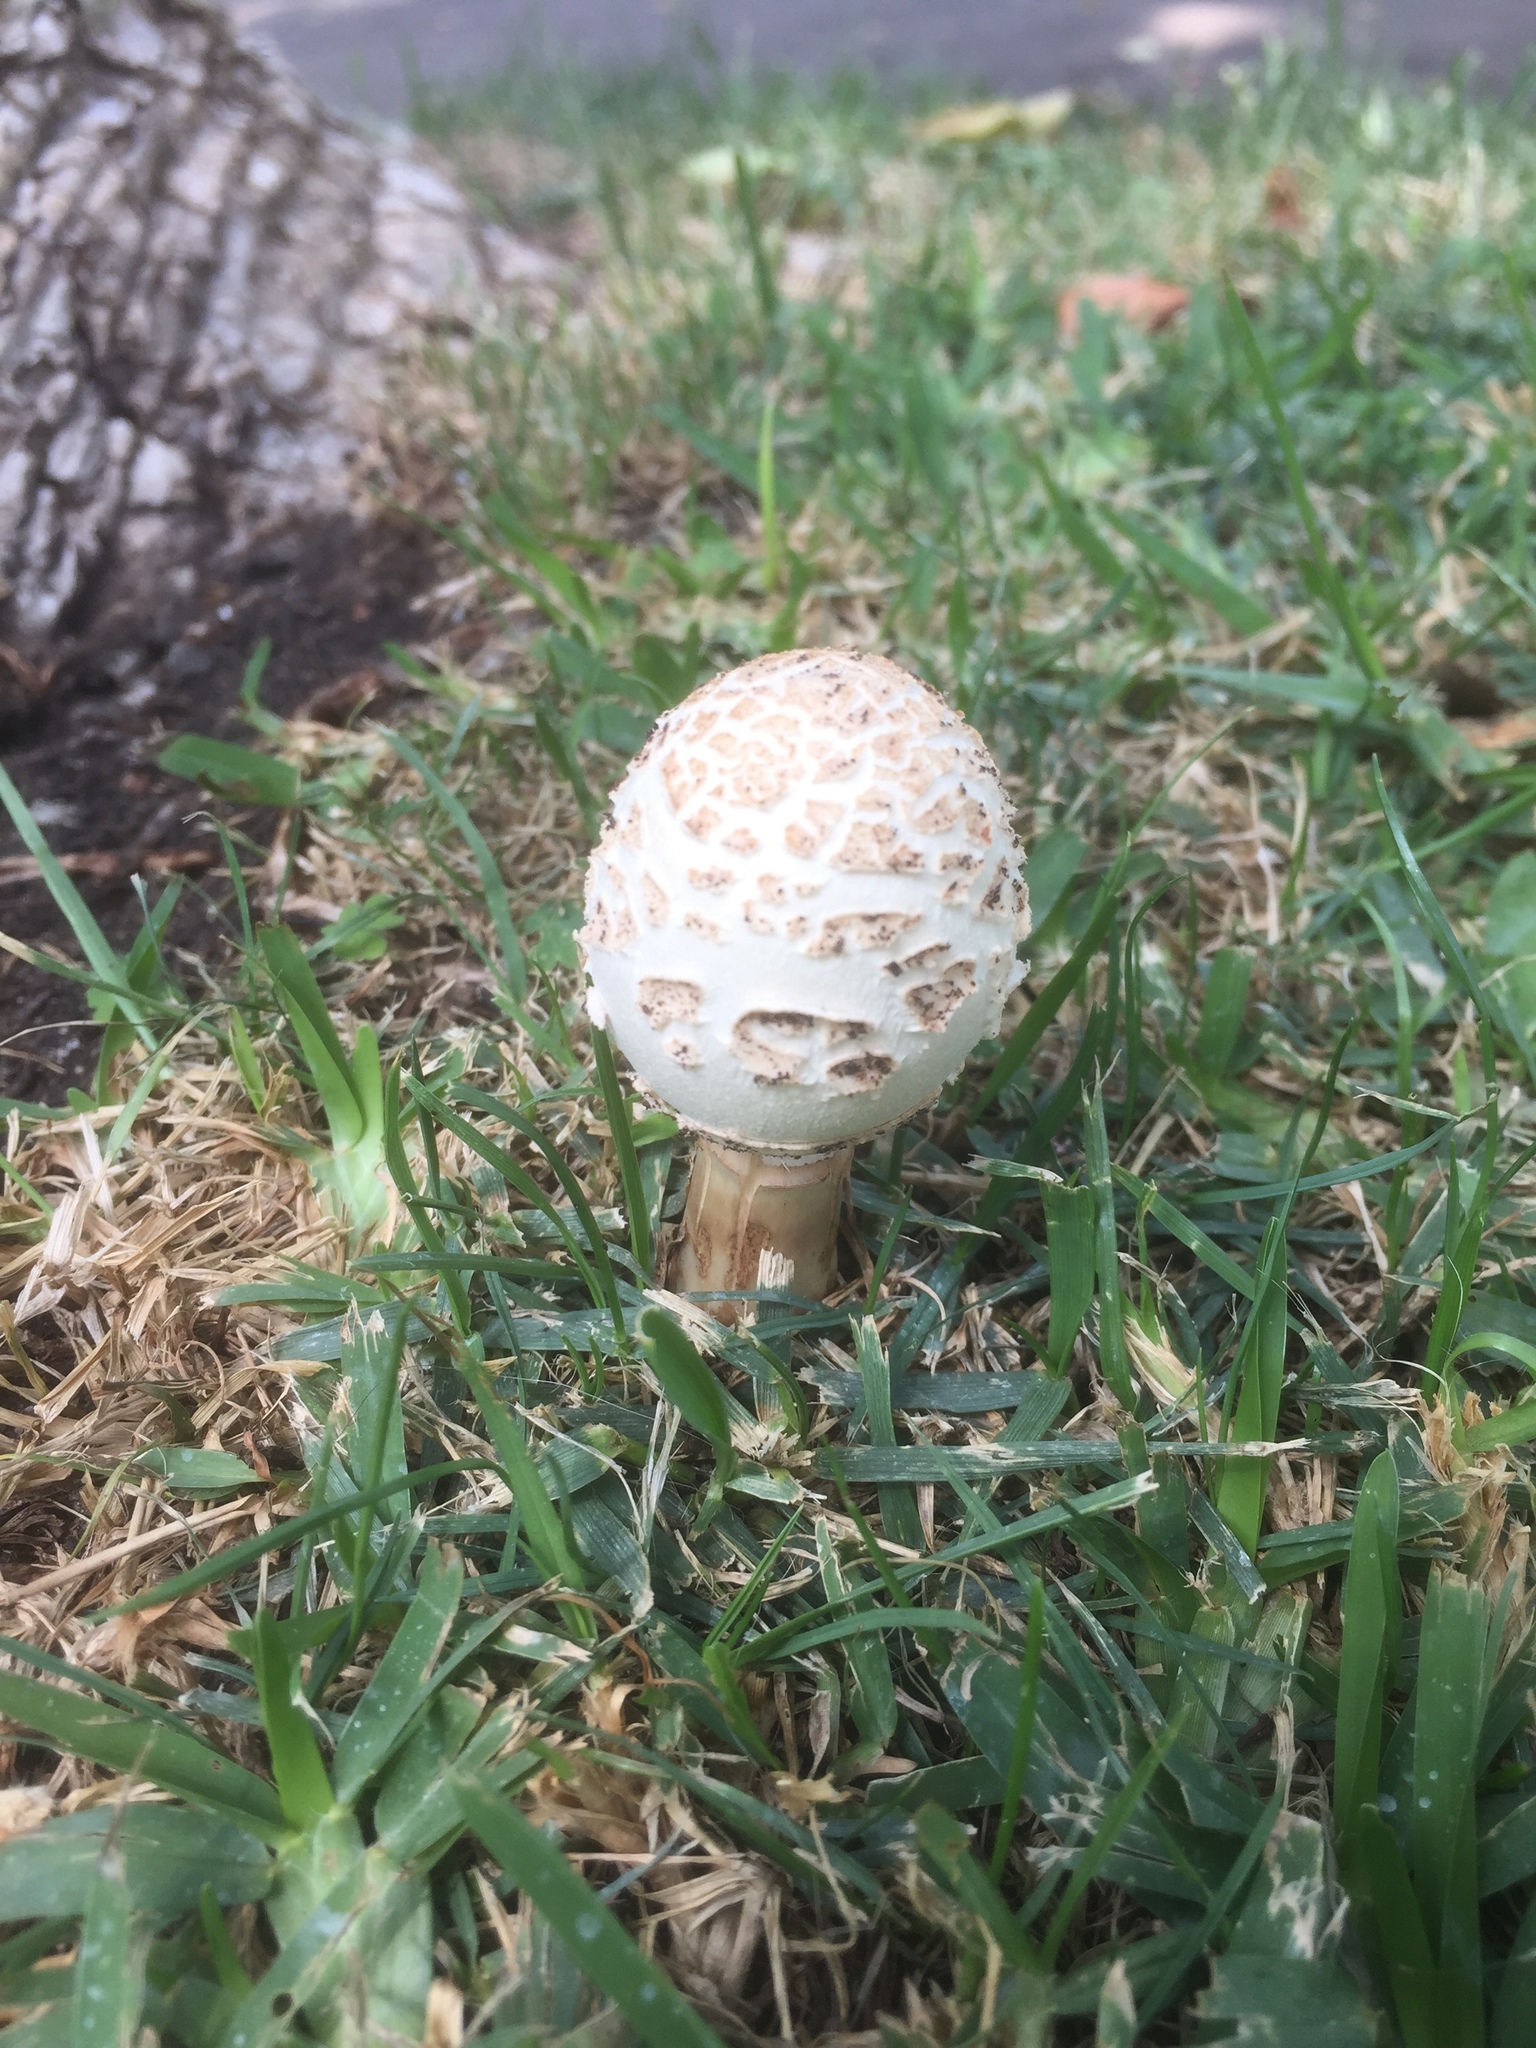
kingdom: Fungi
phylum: Basidiomycota
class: Agaricomycetes
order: Agaricales
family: Agaricaceae
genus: Chlorophyllum
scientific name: Chlorophyllum molybdites
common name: False parasol
